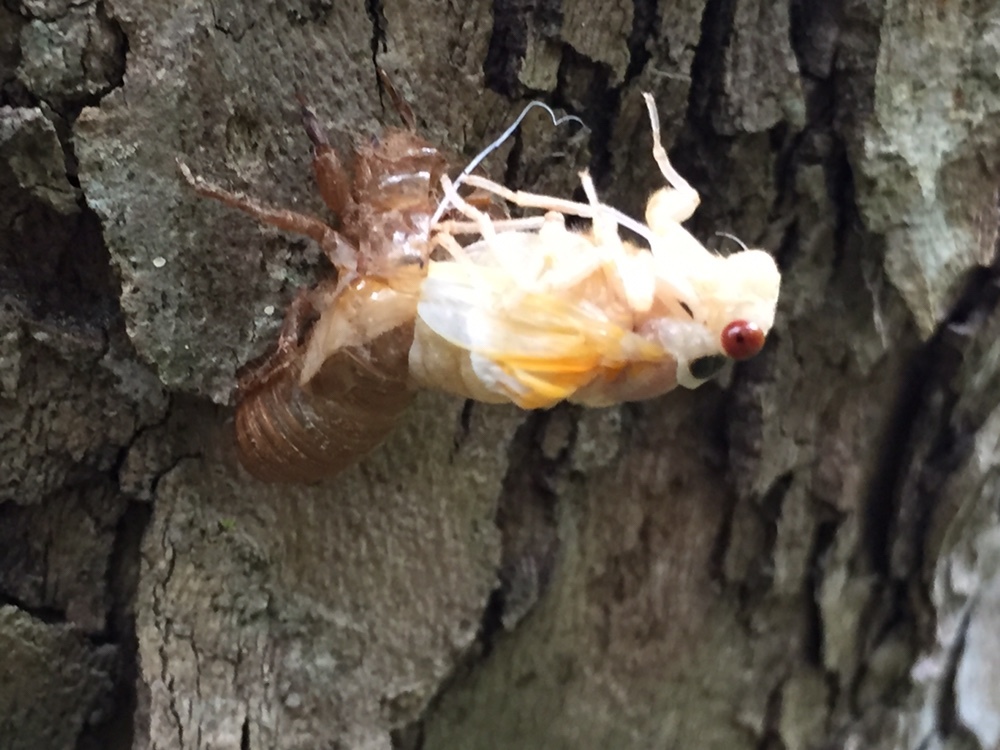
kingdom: Animalia
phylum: Arthropoda
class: Insecta
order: Hemiptera
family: Cicadidae
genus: Magicicada
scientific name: Magicicada
